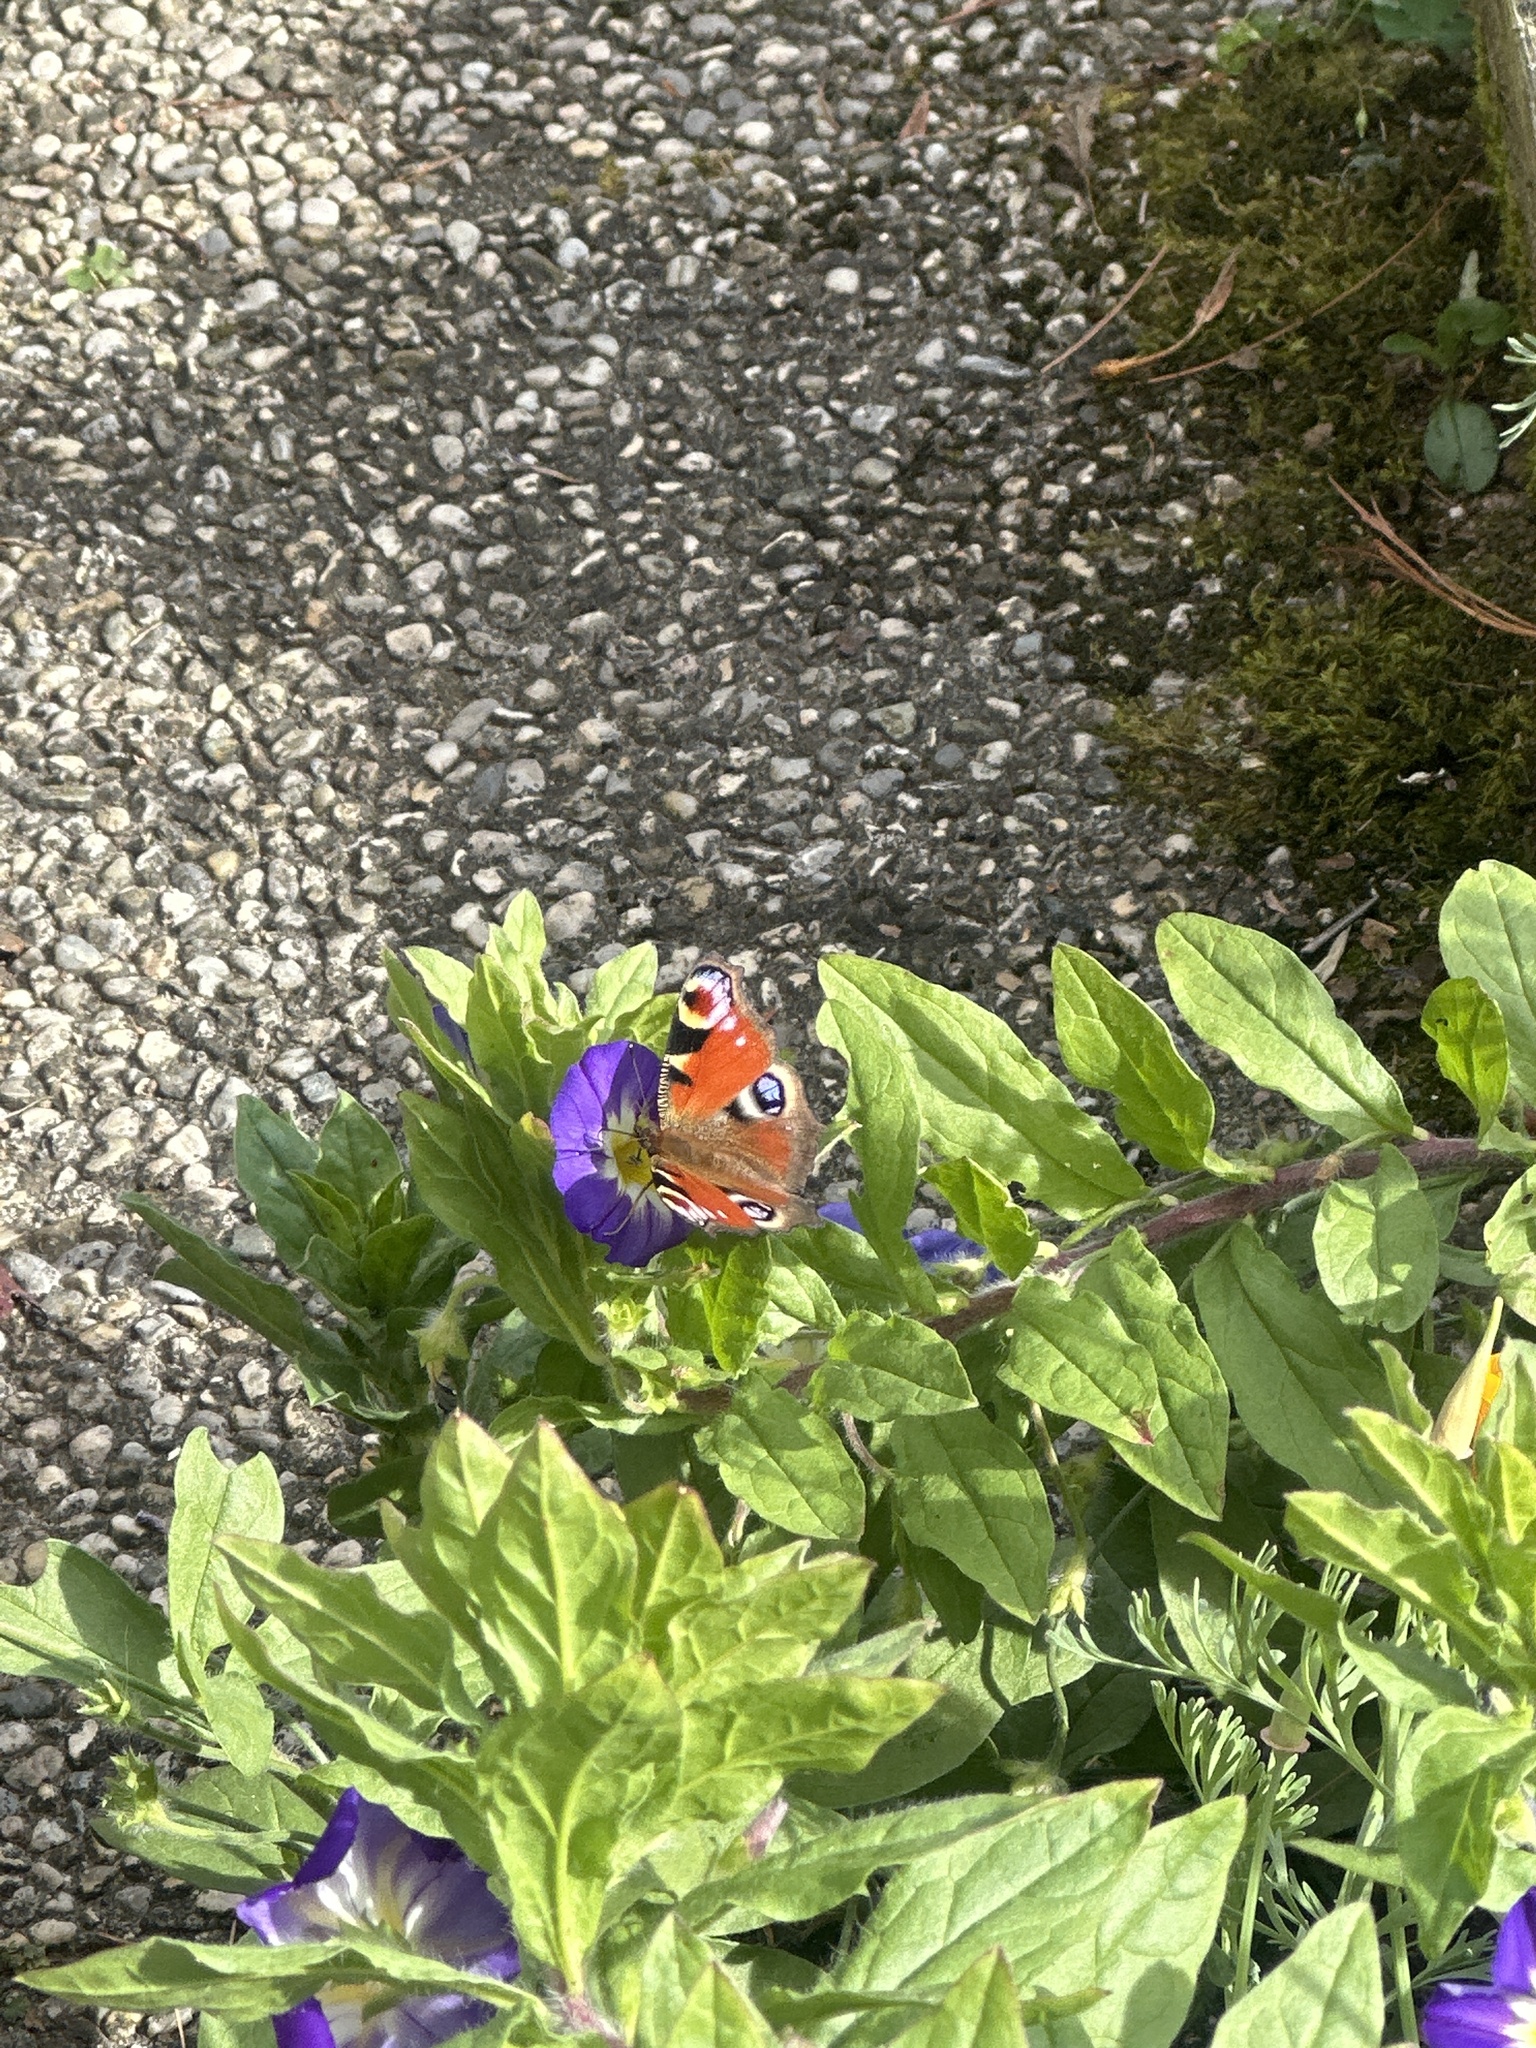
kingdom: Animalia
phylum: Arthropoda
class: Insecta
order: Lepidoptera
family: Nymphalidae
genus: Aglais
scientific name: Aglais io
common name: Peacock
